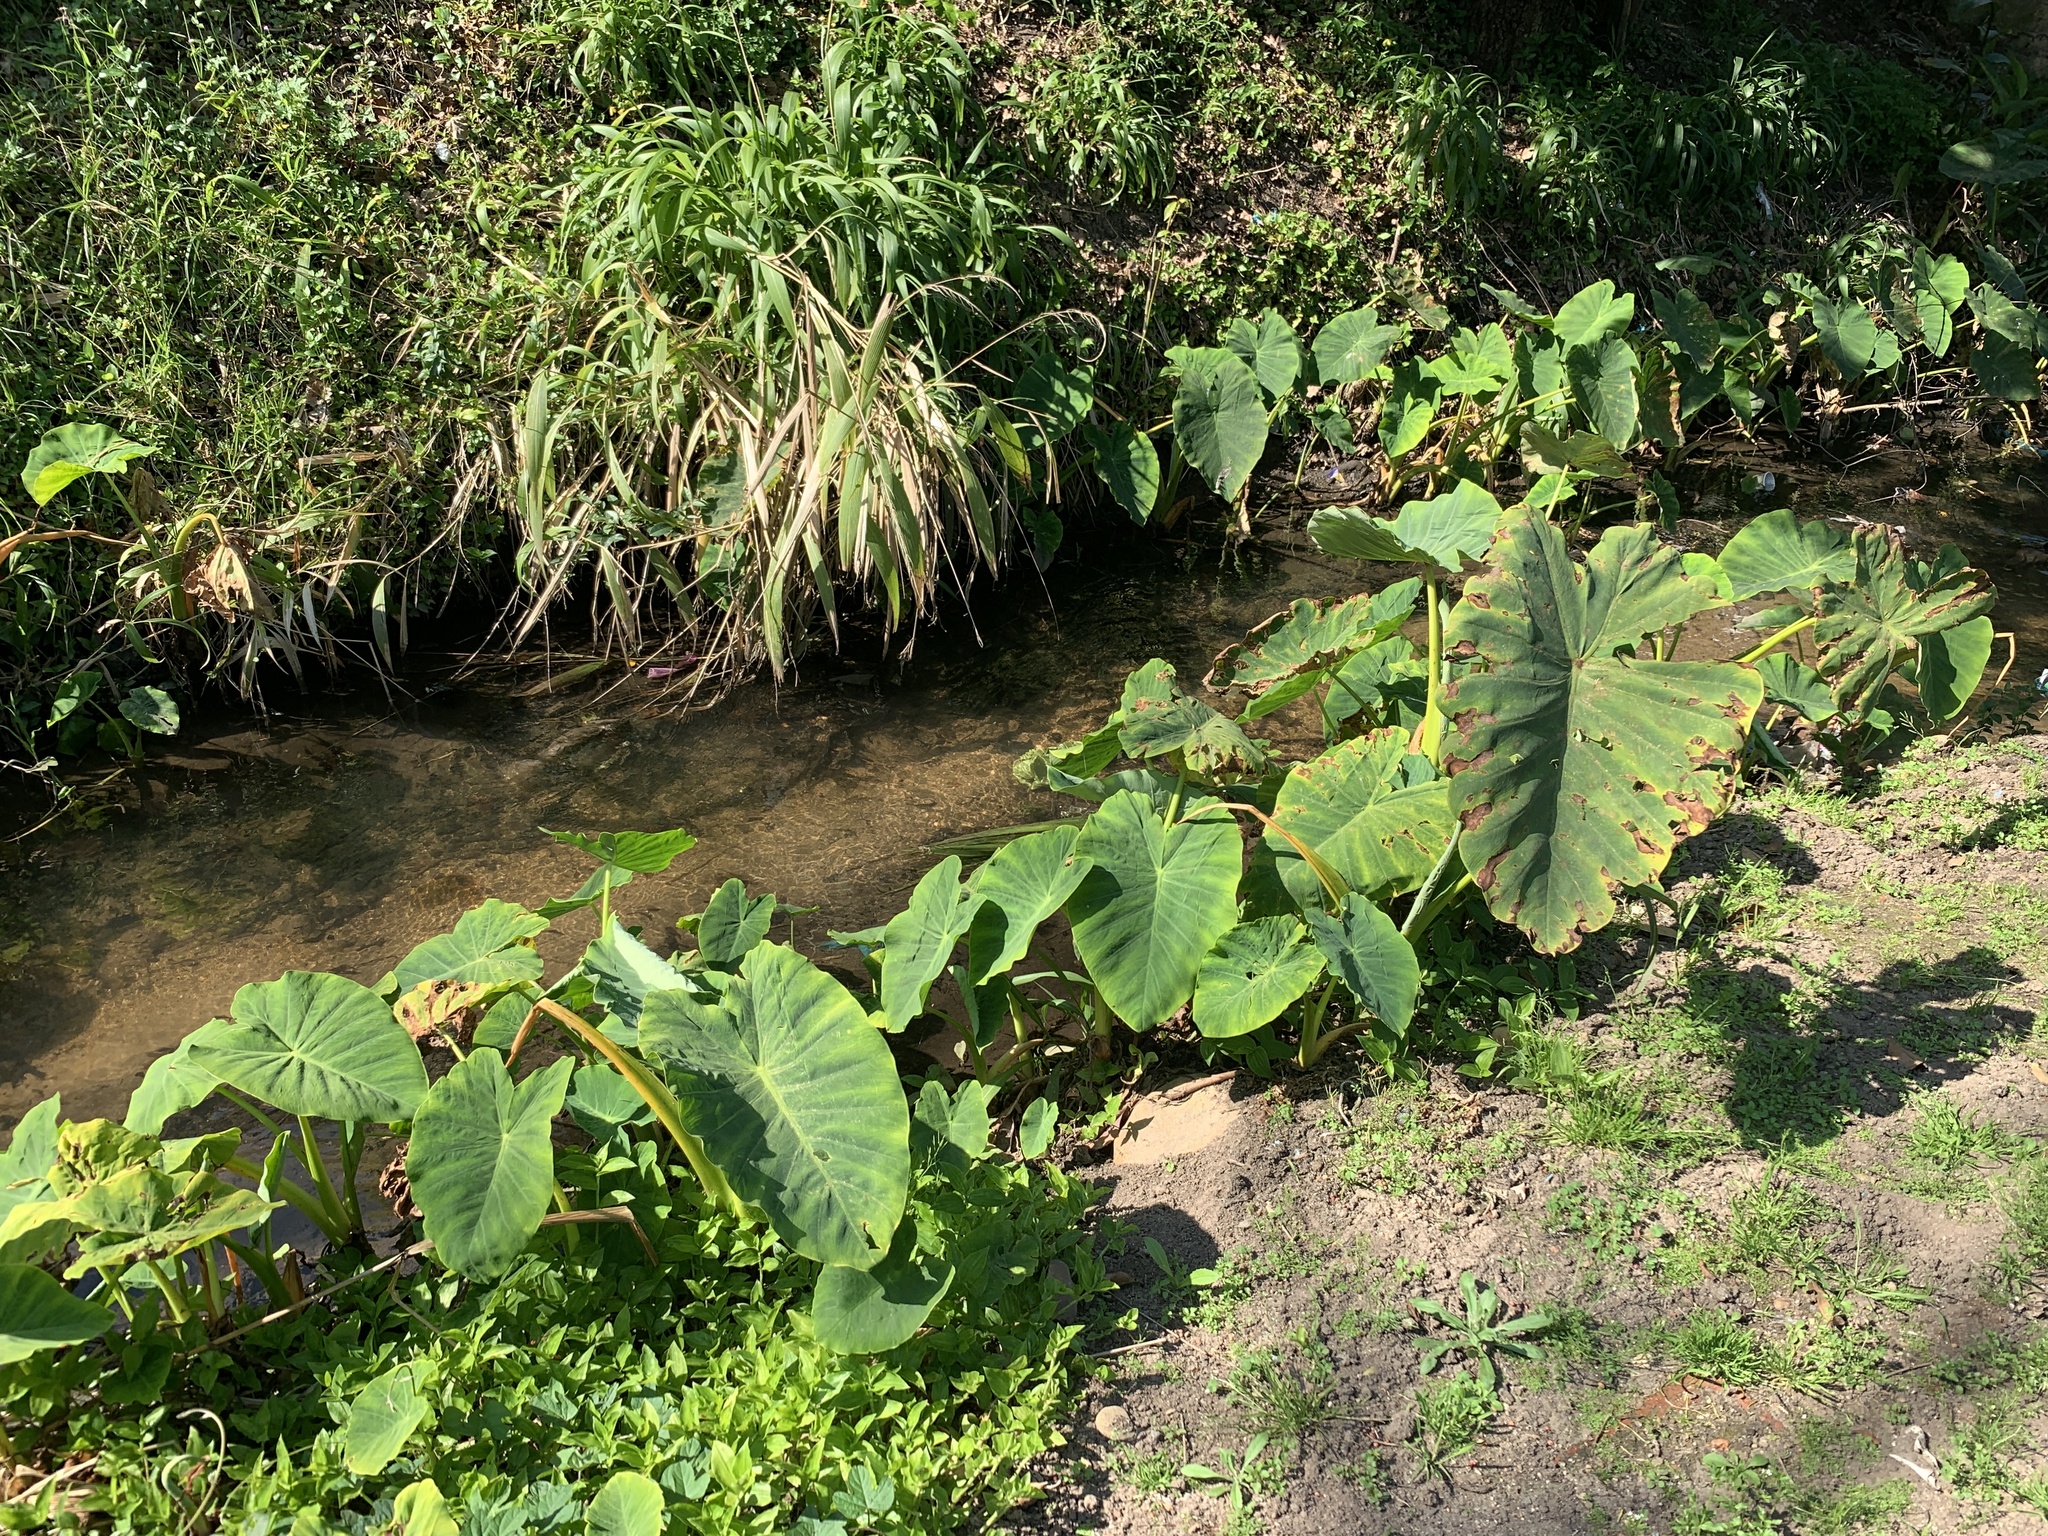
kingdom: Plantae
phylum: Tracheophyta
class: Liliopsida
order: Alismatales
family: Araceae
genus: Colocasia
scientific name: Colocasia esculenta
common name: Taro
